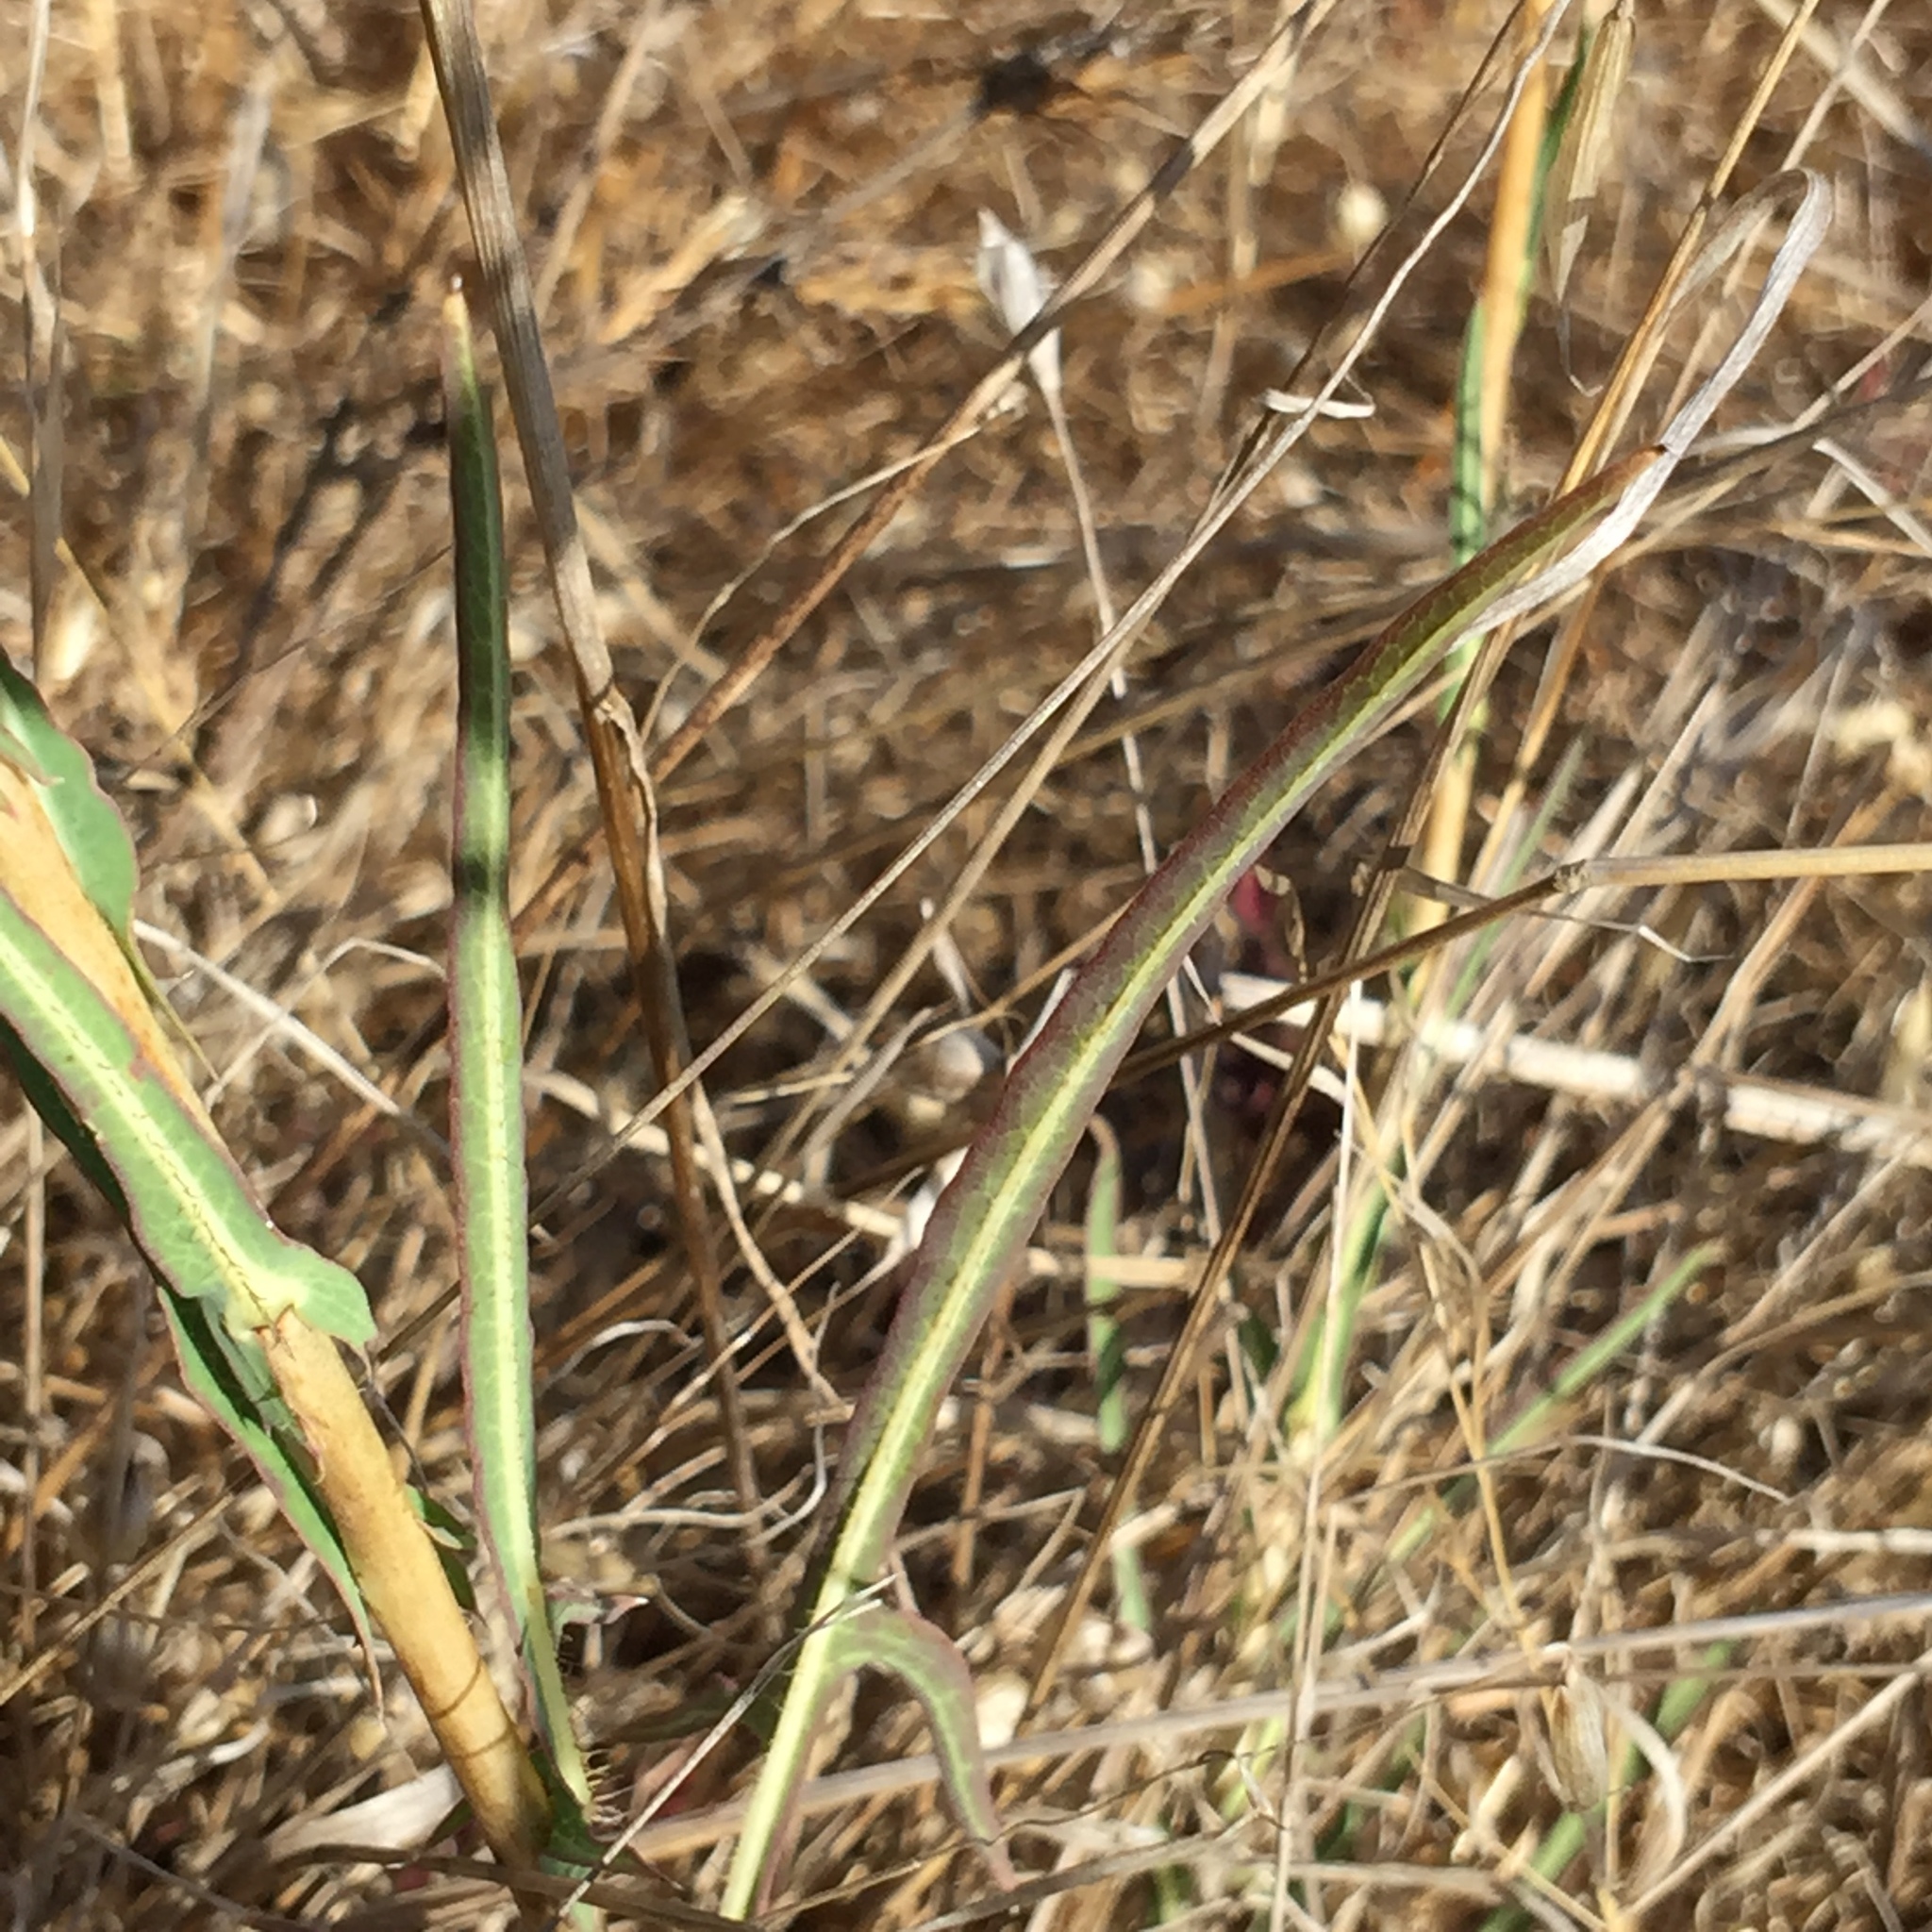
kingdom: Plantae
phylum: Tracheophyta
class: Magnoliopsida
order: Asterales
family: Asteraceae
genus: Lactuca
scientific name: Lactuca saligna
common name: Wild lettuce
